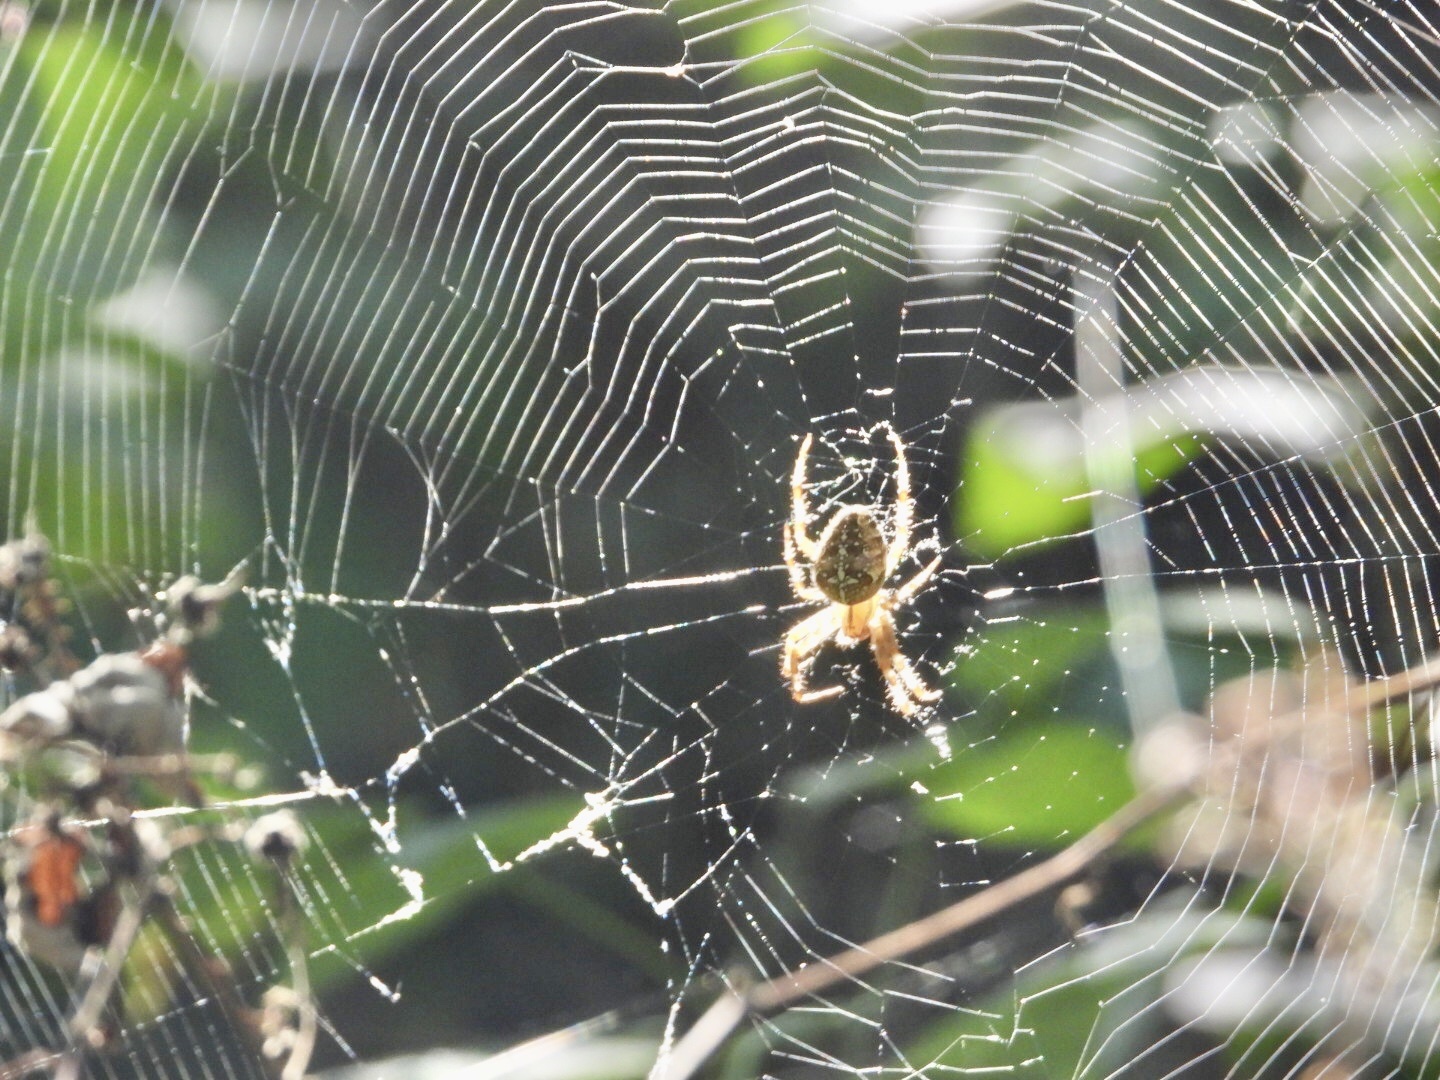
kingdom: Animalia
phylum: Arthropoda
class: Arachnida
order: Araneae
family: Araneidae
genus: Araneus
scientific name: Araneus diadematus
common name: Cross orbweaver
